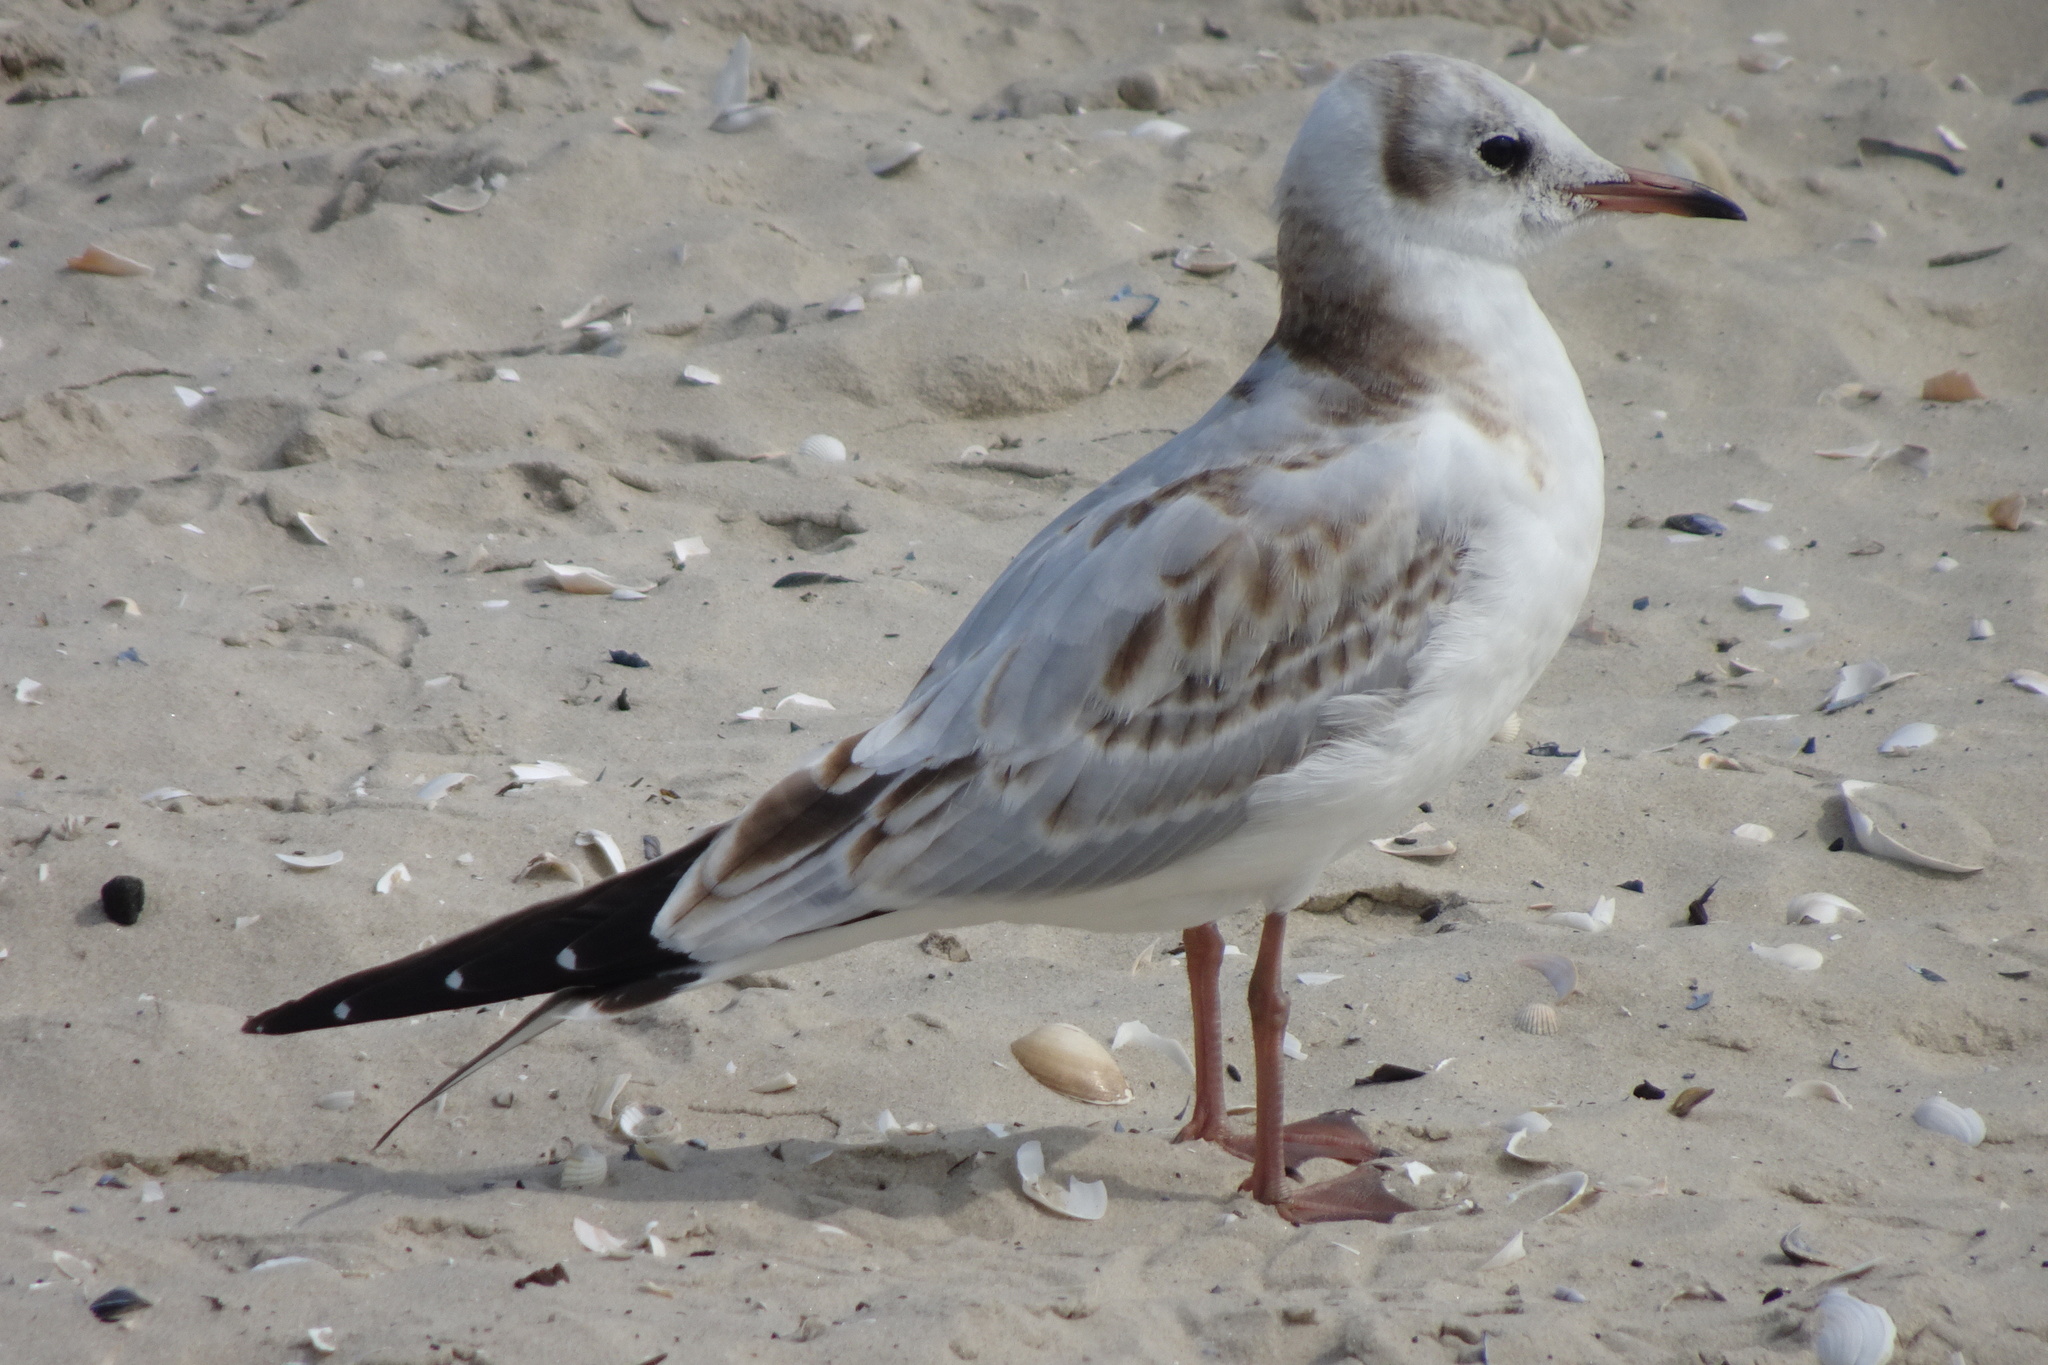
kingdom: Animalia
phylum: Chordata
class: Aves
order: Charadriiformes
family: Laridae
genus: Chroicocephalus
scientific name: Chroicocephalus ridibundus
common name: Black-headed gull
